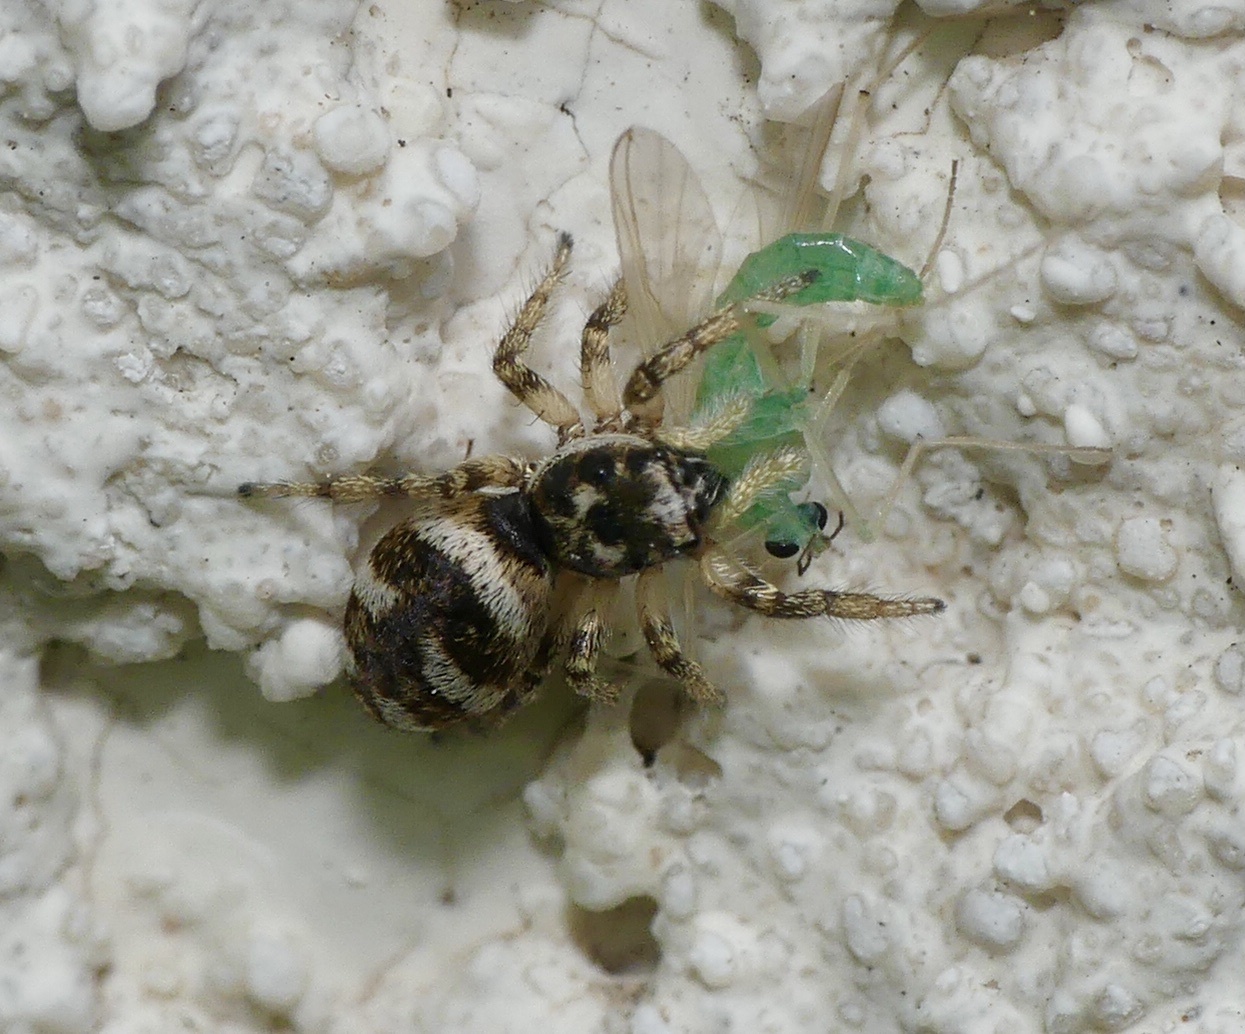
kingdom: Animalia
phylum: Arthropoda
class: Arachnida
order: Araneae
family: Salticidae
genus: Salticus
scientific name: Salticus scenicus
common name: Zebra jumper
